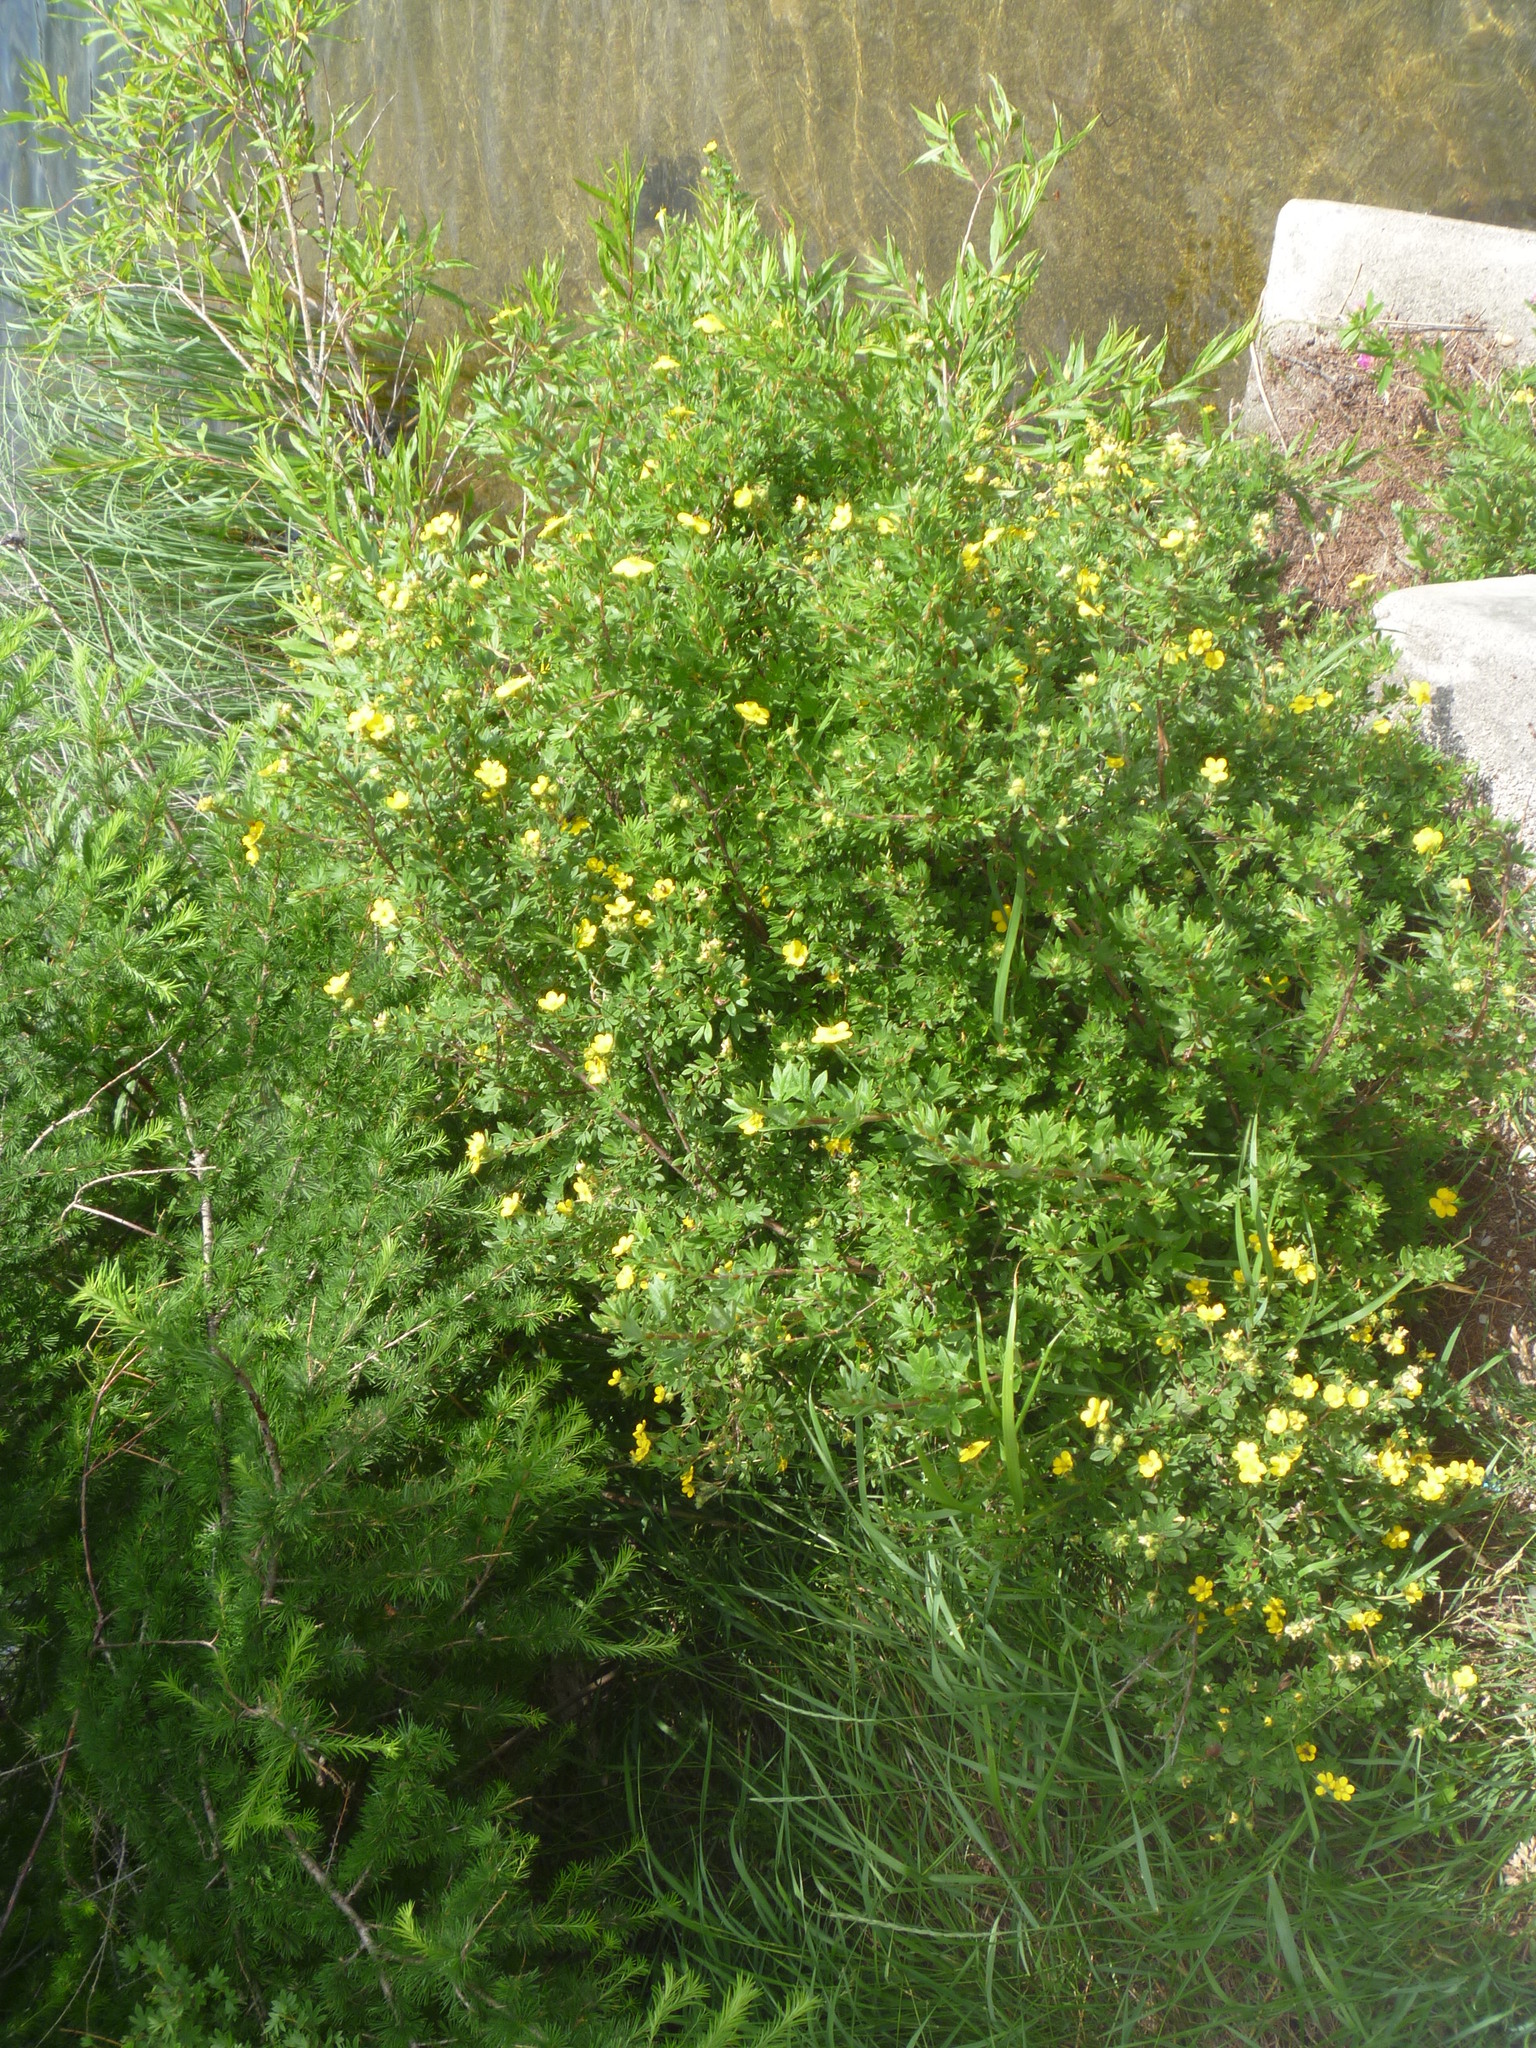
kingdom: Plantae
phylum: Tracheophyta
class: Magnoliopsida
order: Rosales
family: Rosaceae
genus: Dasiphora
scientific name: Dasiphora fruticosa
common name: Shrubby cinquefoil
